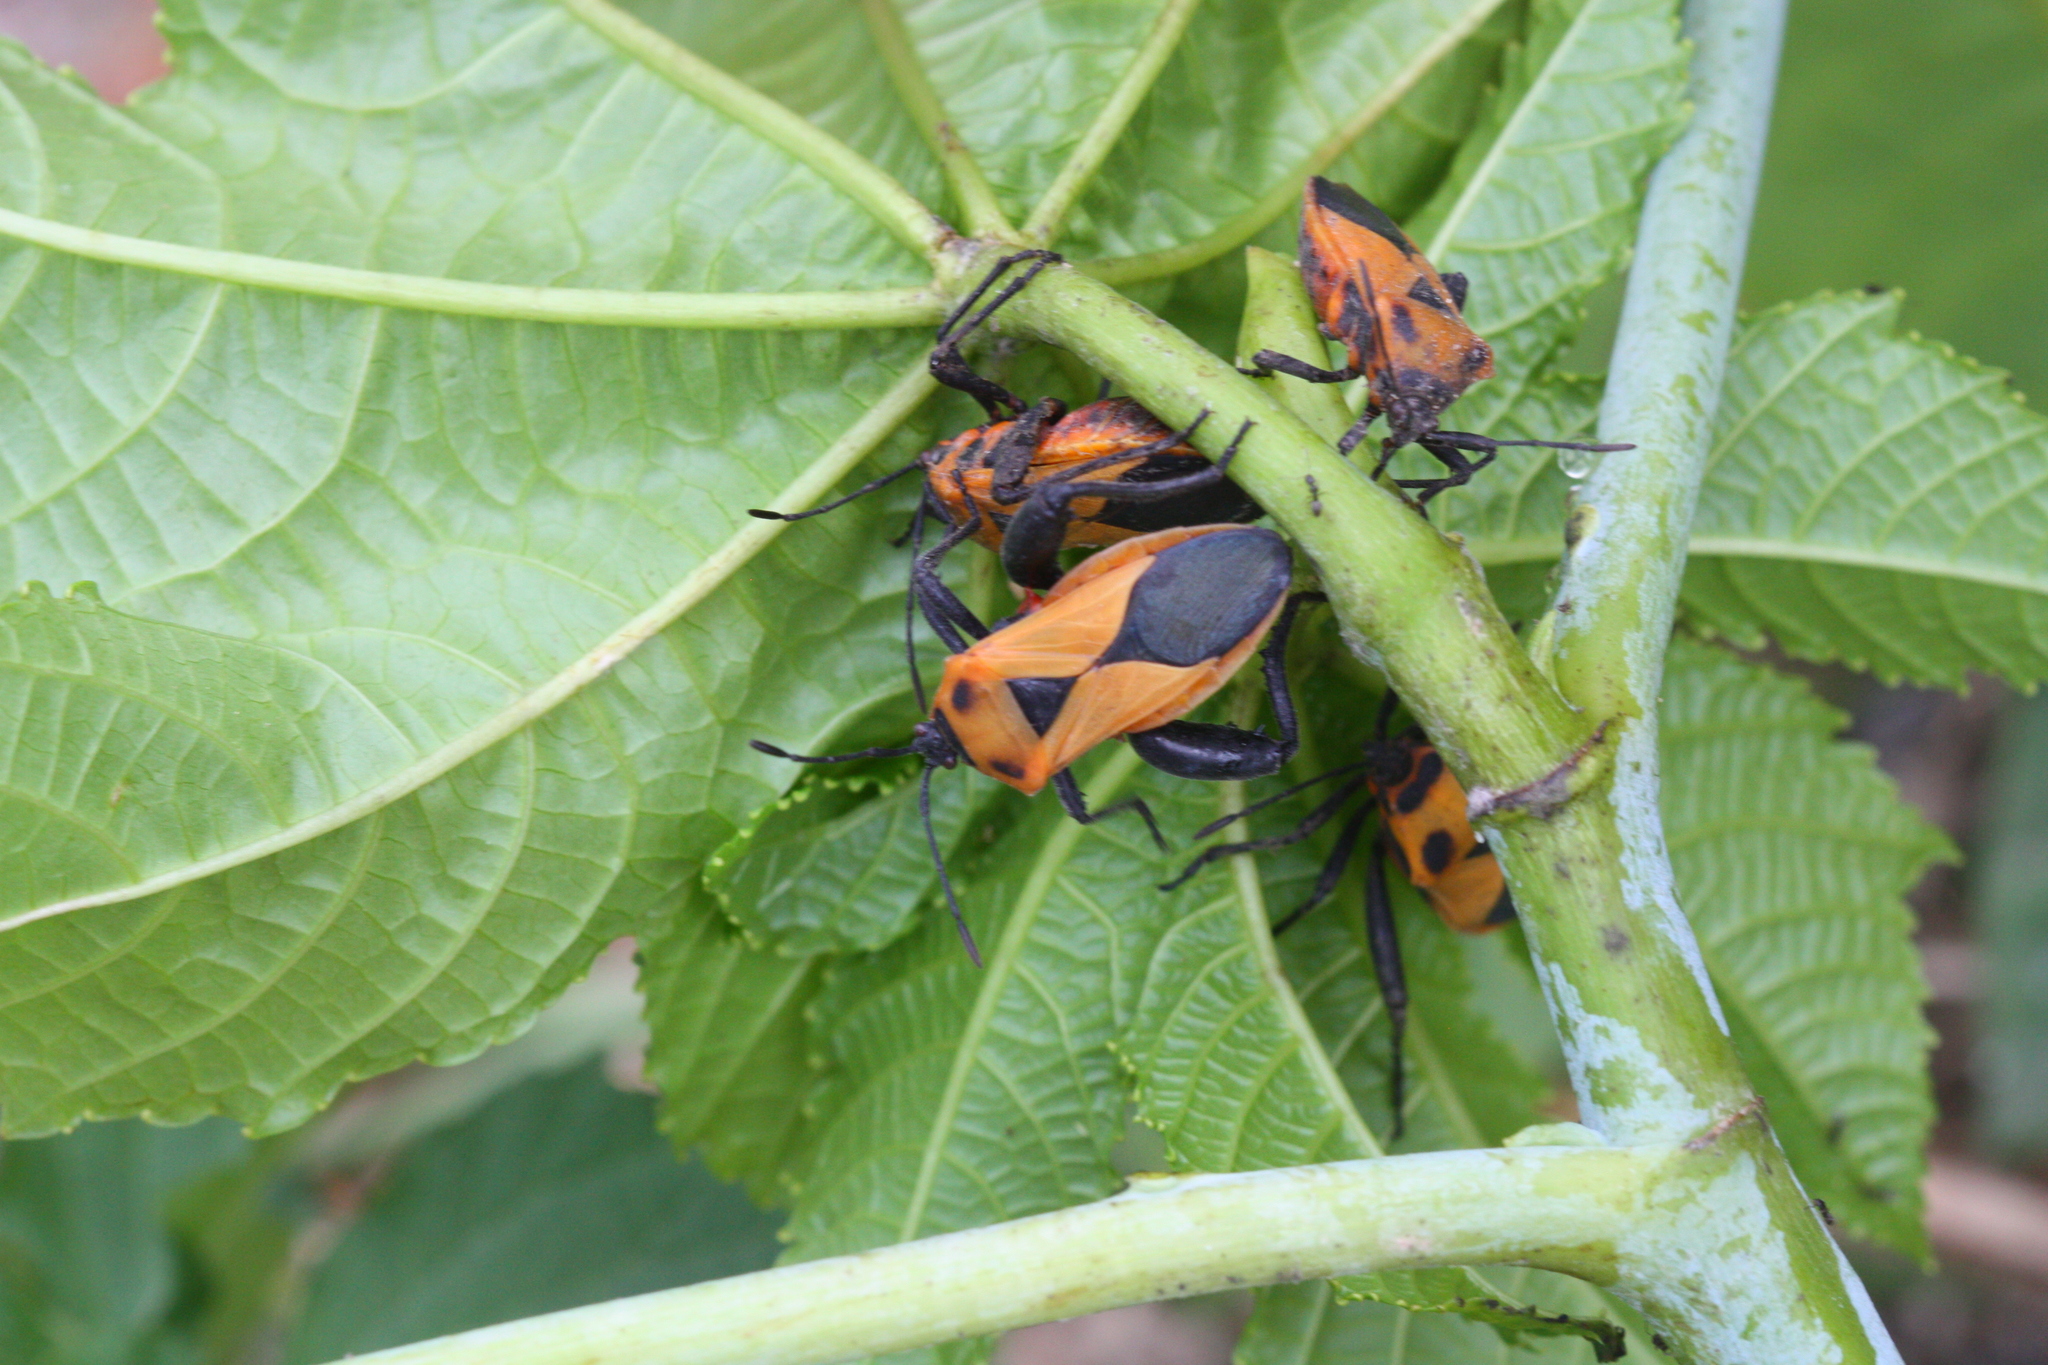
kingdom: Animalia
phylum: Arthropoda
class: Insecta
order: Hemiptera
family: Coreidae
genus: Sagotylus
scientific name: Sagotylus confluens
